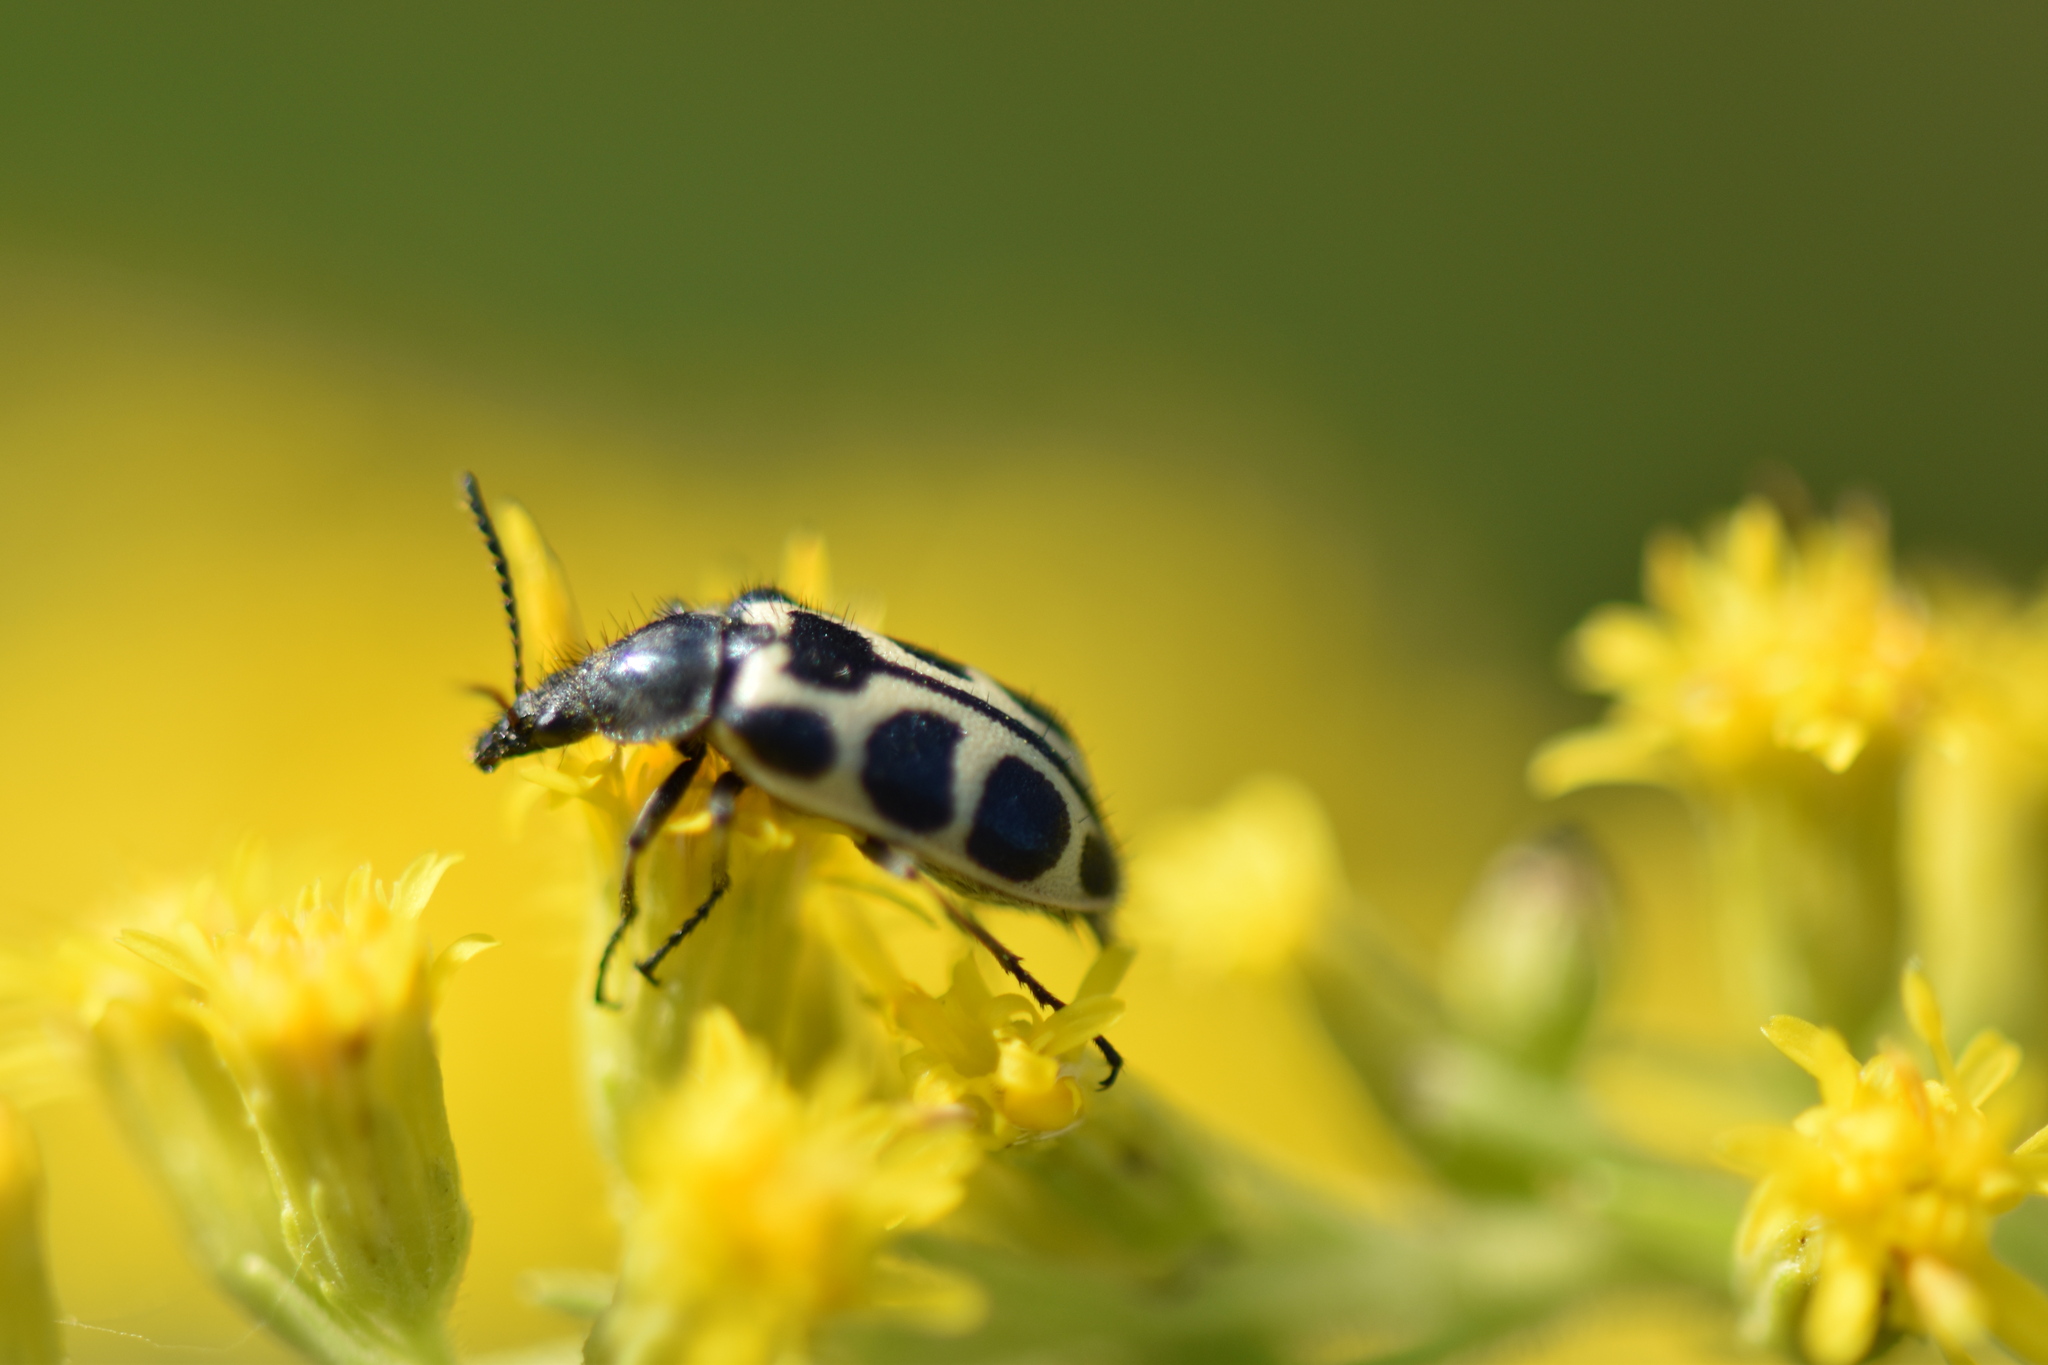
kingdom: Animalia
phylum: Arthropoda
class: Insecta
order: Coleoptera
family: Melyridae
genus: Astylus
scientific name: Astylus
